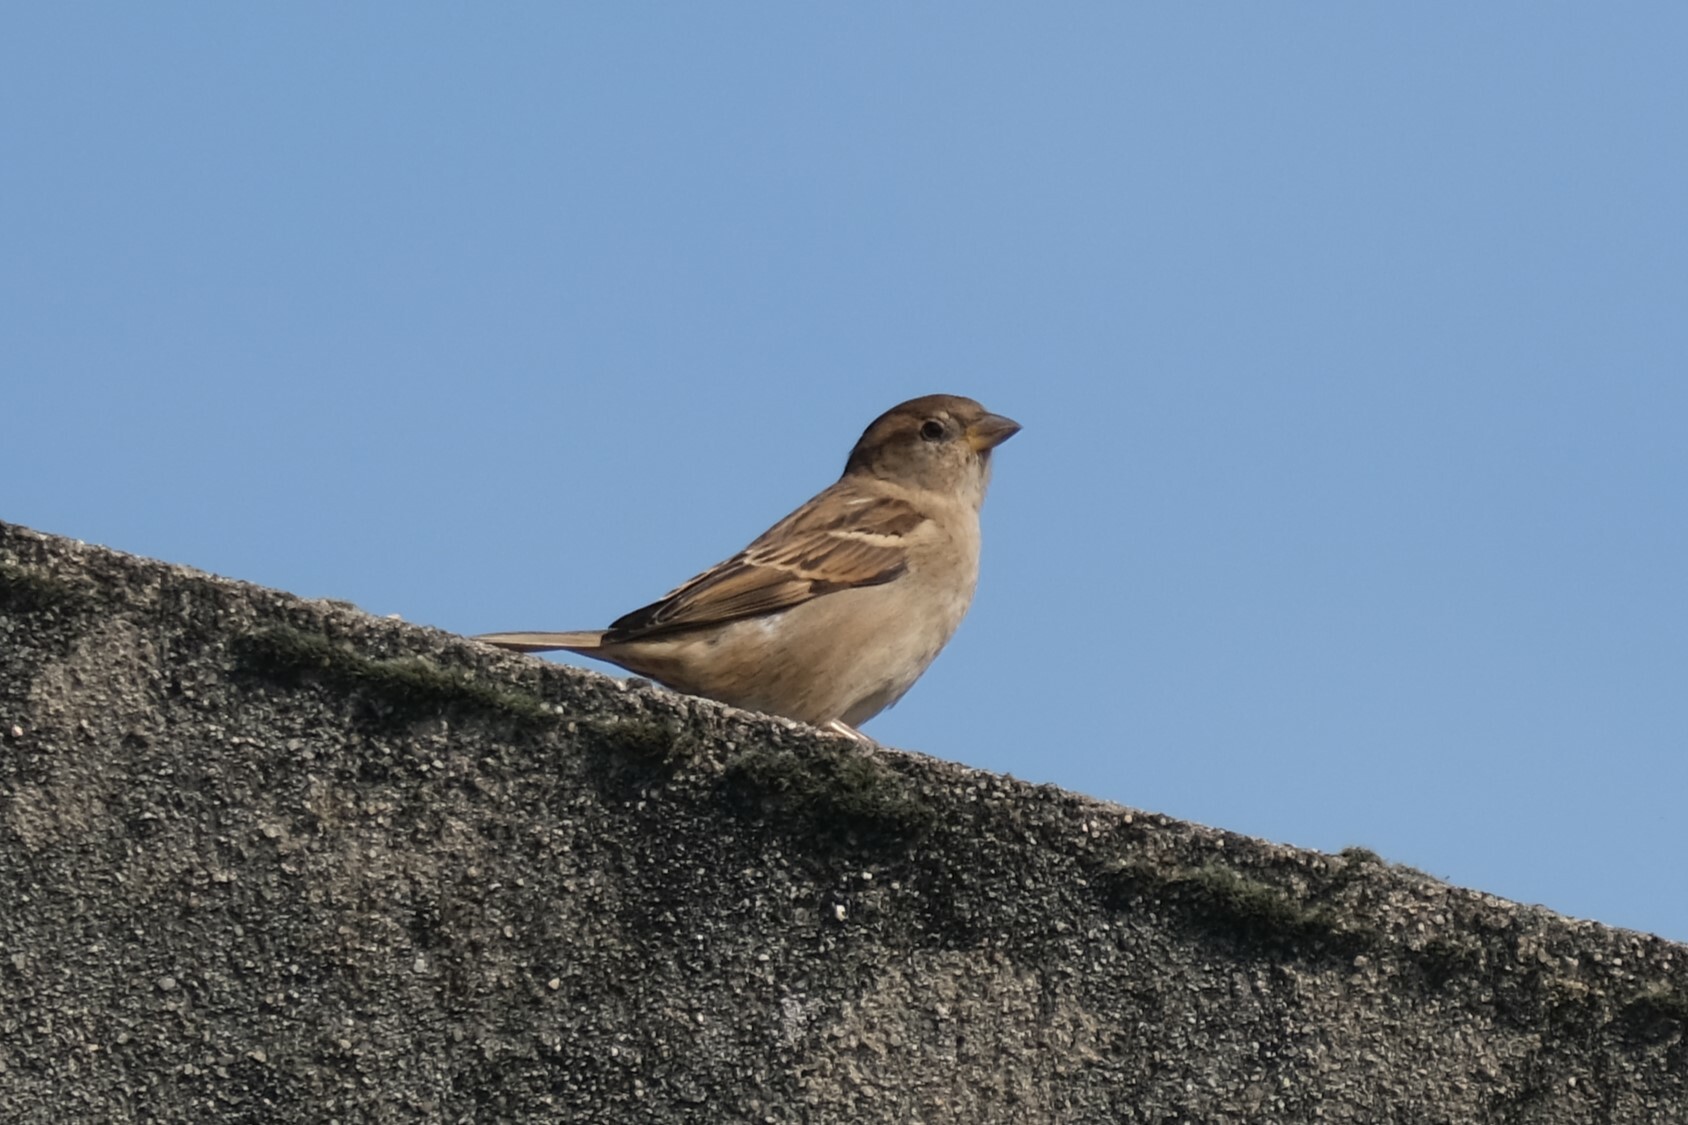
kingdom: Animalia
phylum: Chordata
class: Aves
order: Passeriformes
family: Passeridae
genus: Passer
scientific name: Passer domesticus
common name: House sparrow
